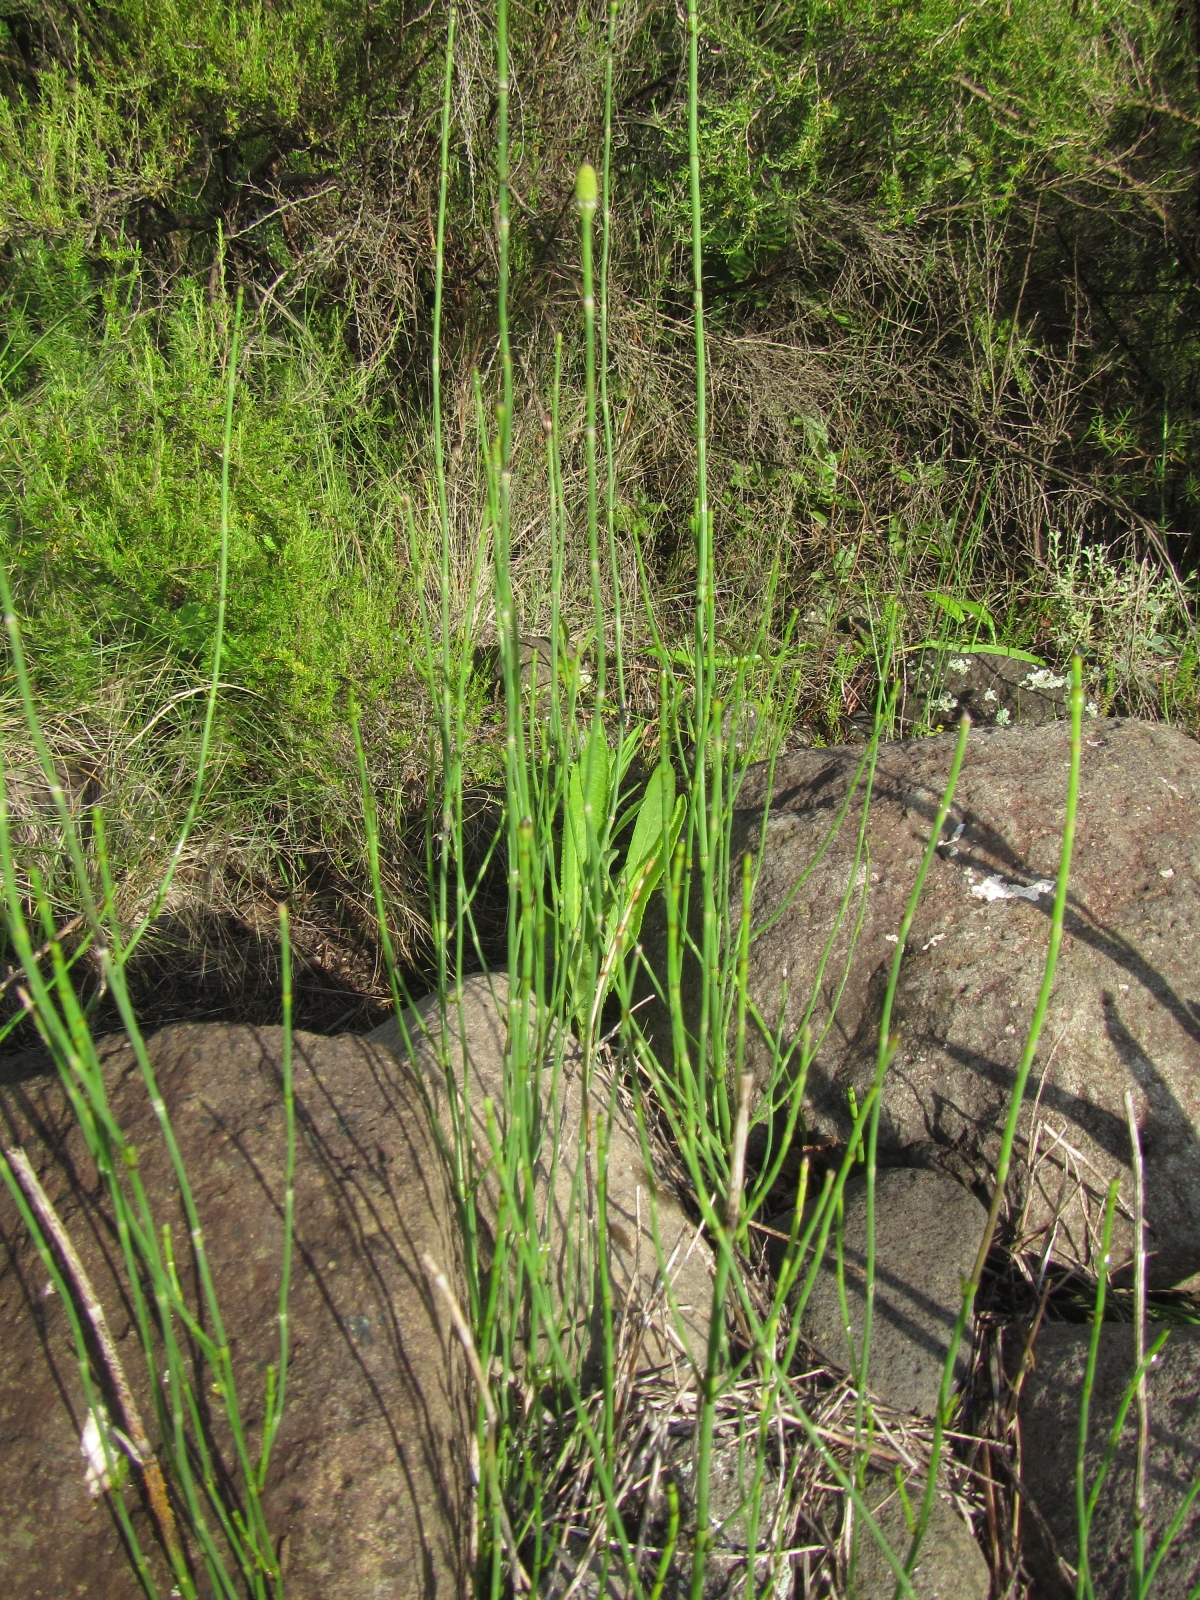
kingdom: Plantae
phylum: Tracheophyta
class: Polypodiopsida
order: Equisetales
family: Equisetaceae
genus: Equisetum
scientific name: Equisetum ramosissimum
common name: Branched horsetail
